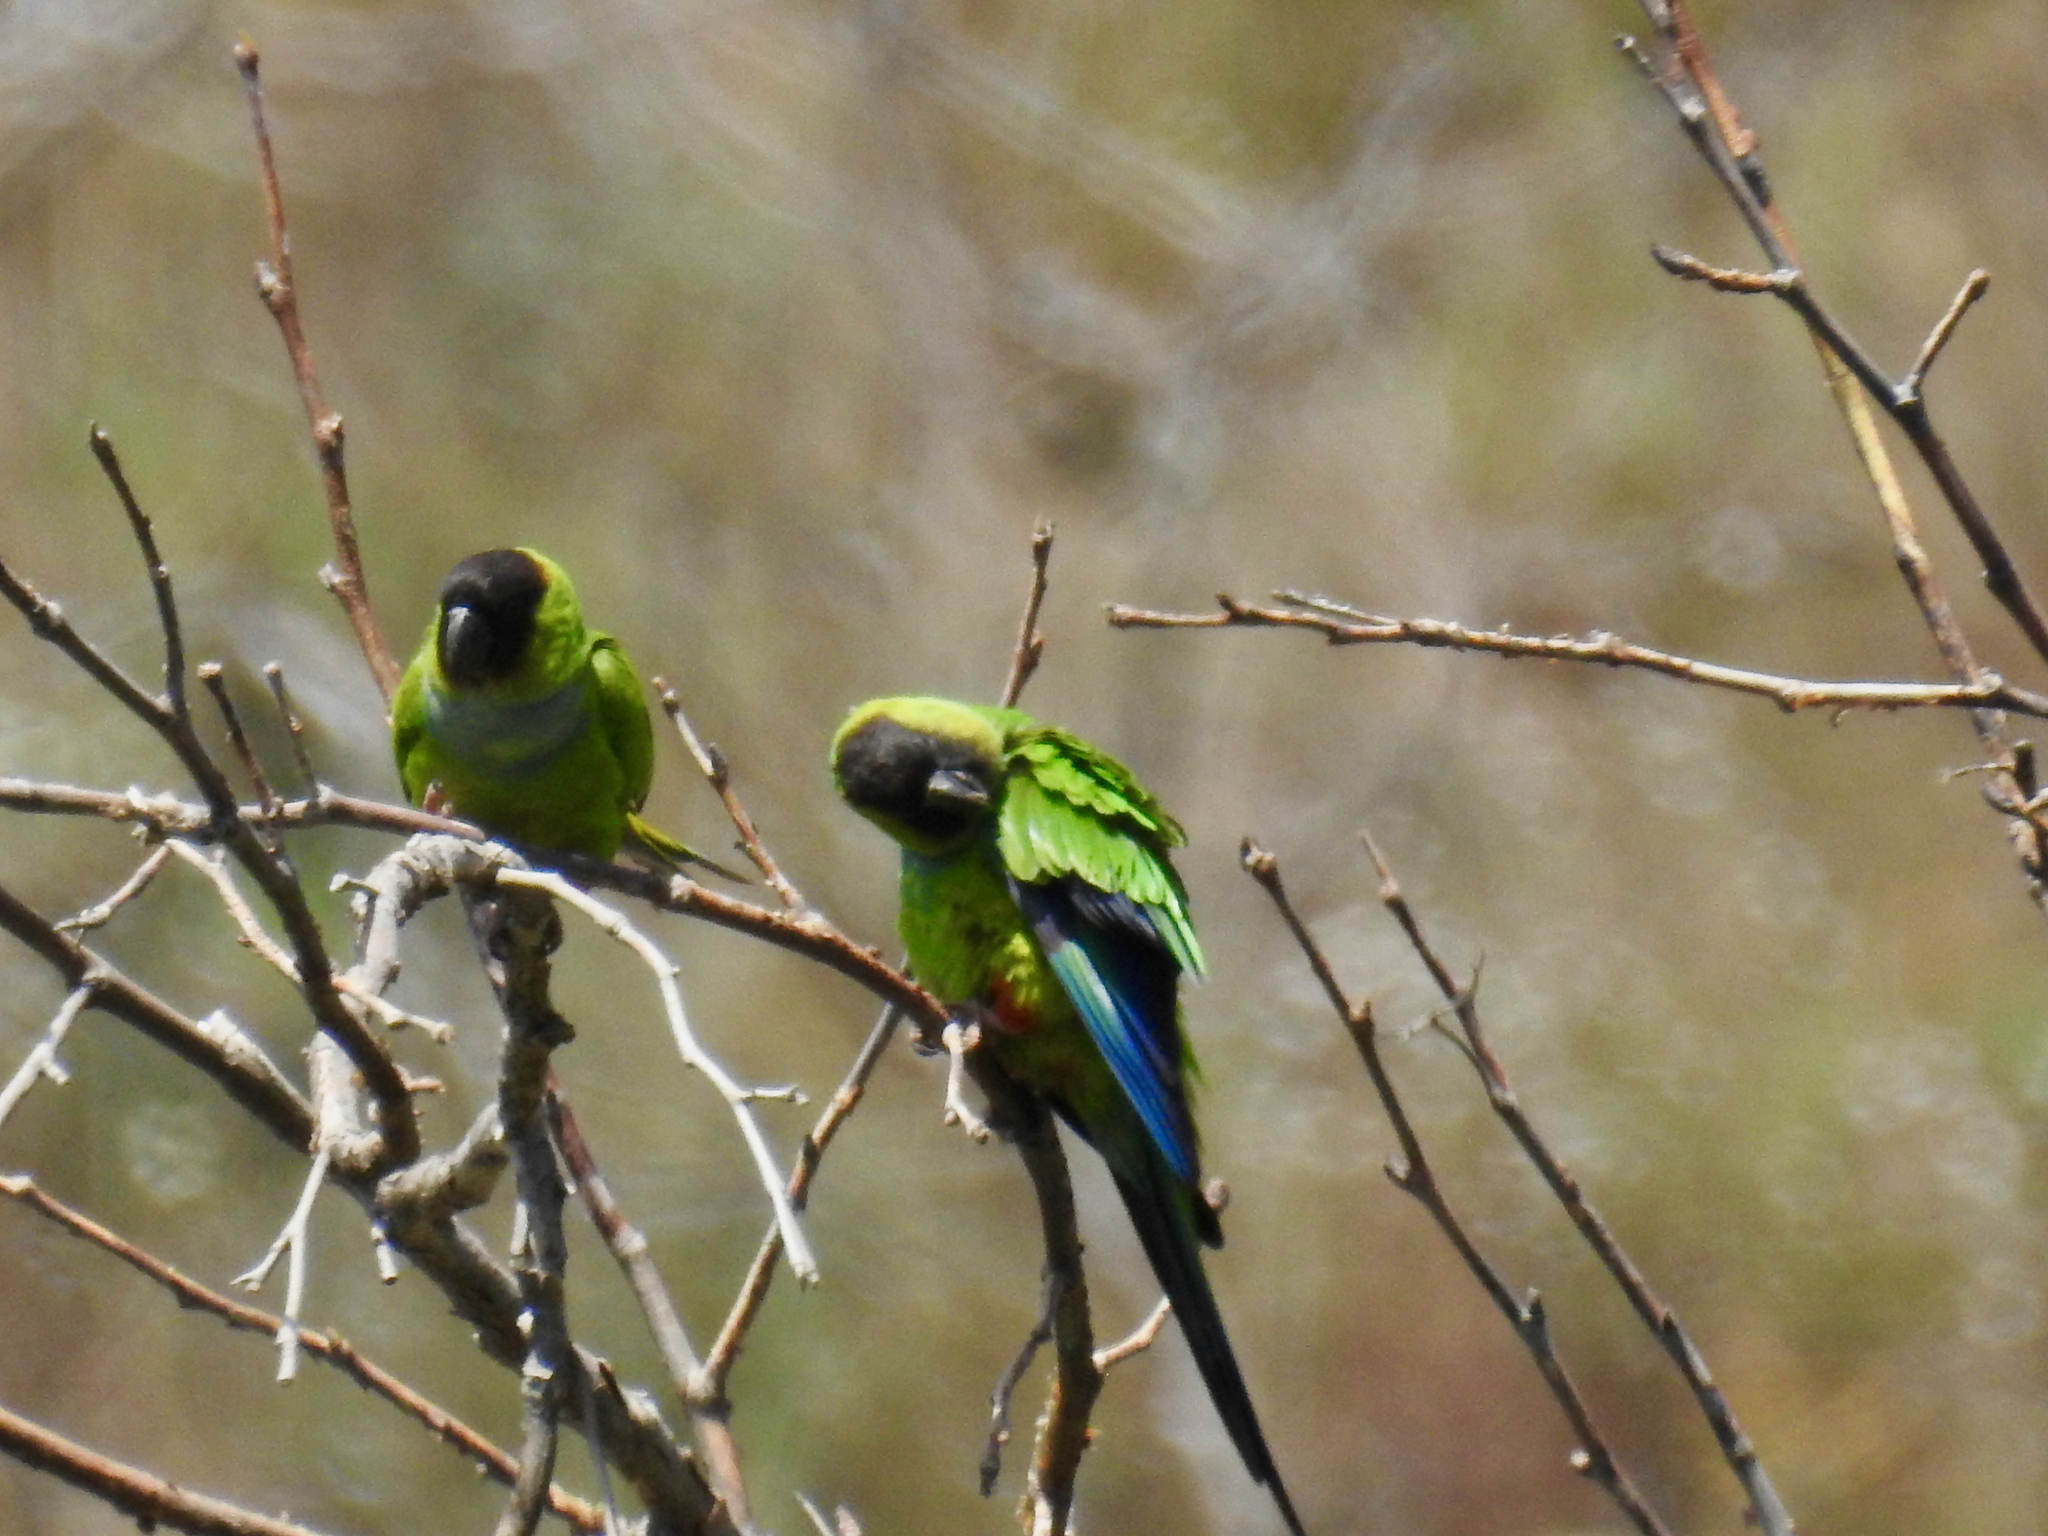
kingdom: Animalia
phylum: Chordata
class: Aves
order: Psittaciformes
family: Psittacidae
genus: Nandayus
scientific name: Nandayus nenday
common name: Nanday parakeet
